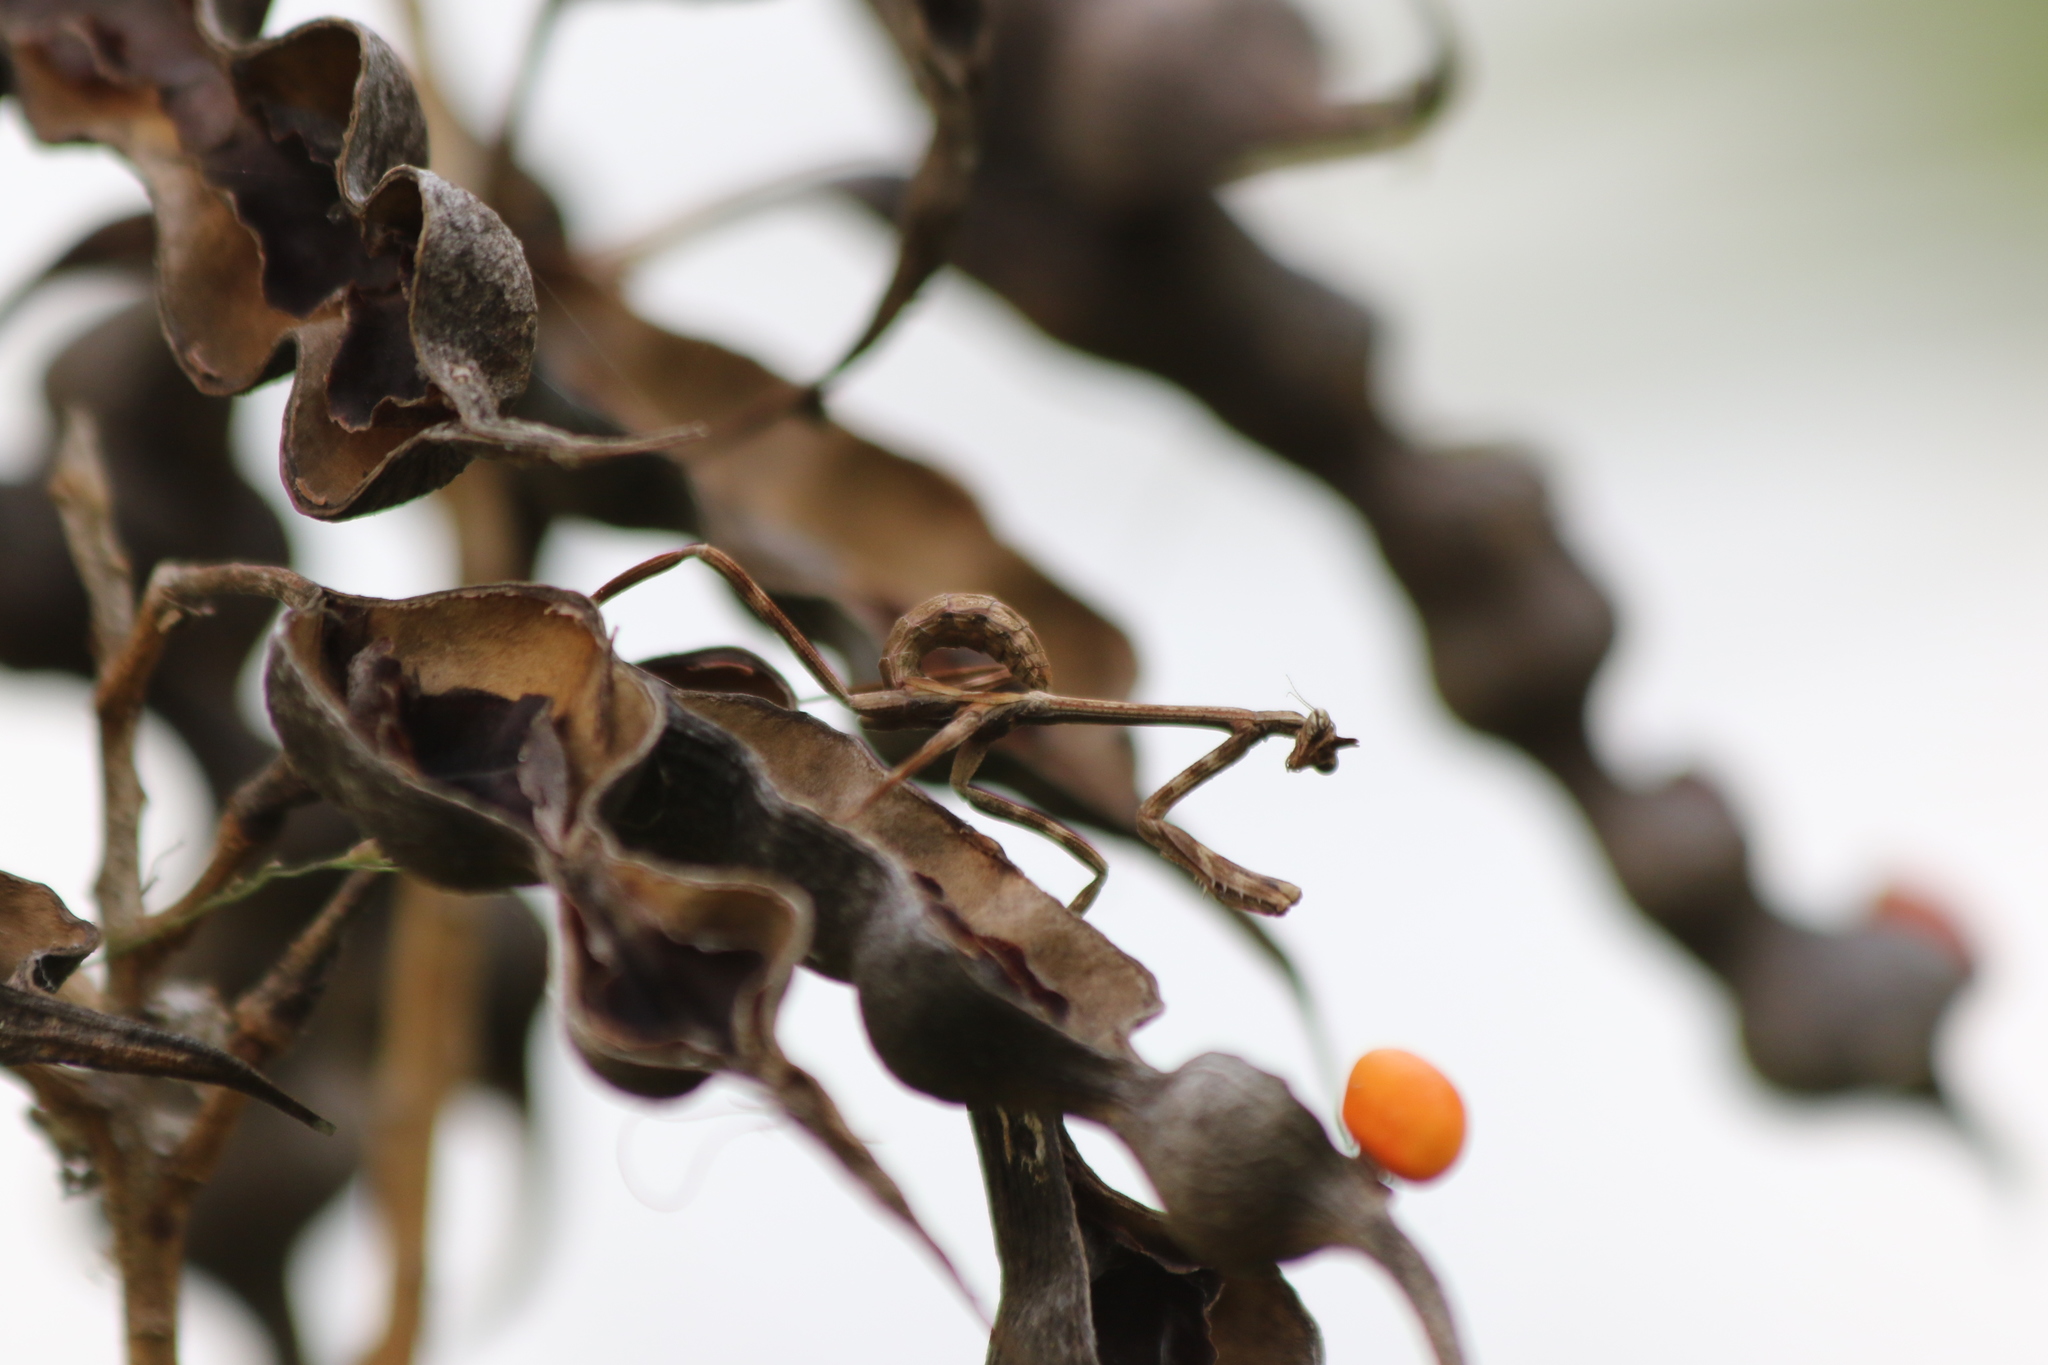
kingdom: Animalia
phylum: Arthropoda
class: Insecta
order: Mantodea
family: Mantidae
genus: Pseudovates
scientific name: Pseudovates chlorophaea
